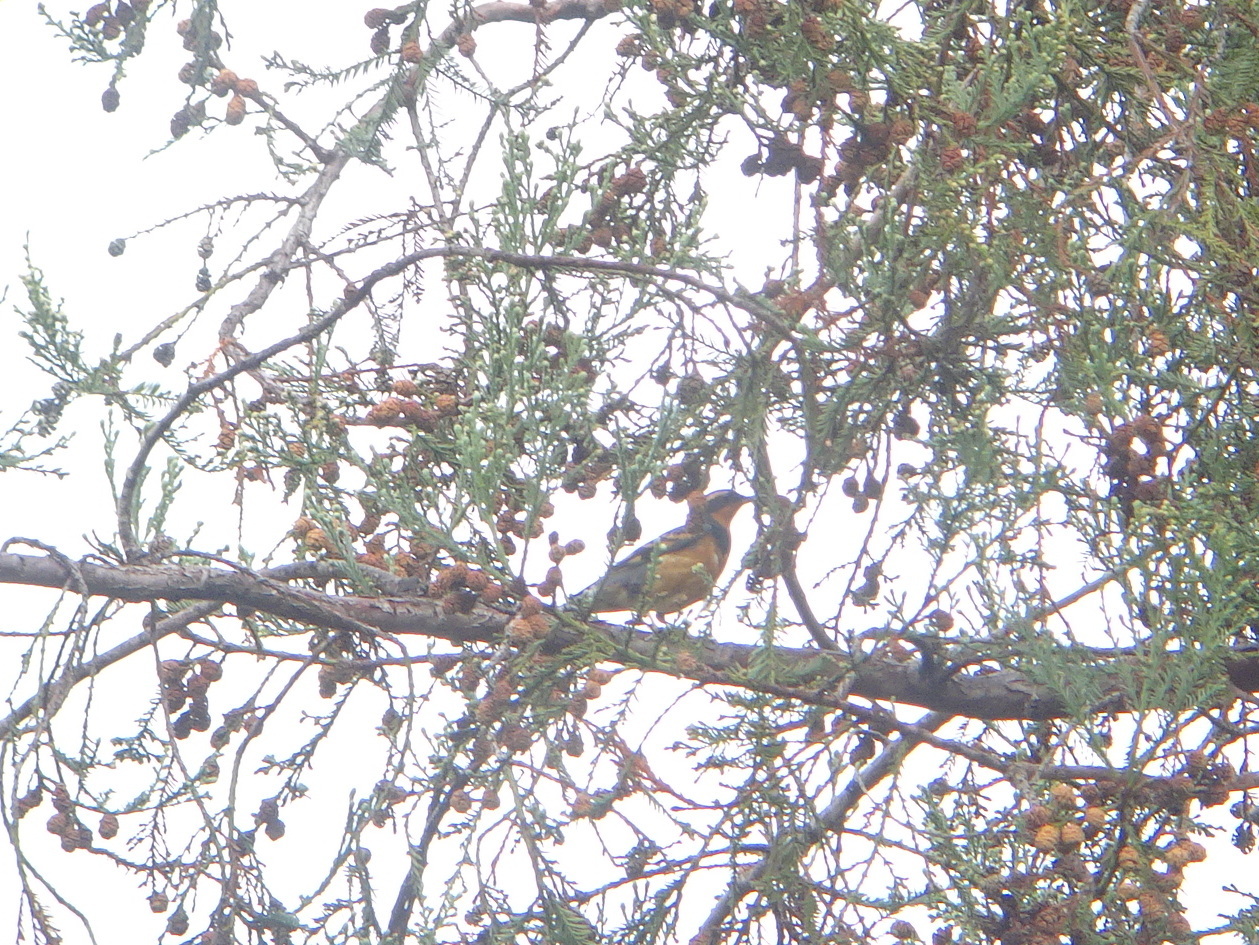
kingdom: Animalia
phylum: Chordata
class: Aves
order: Passeriformes
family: Turdidae
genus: Ixoreus
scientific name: Ixoreus naevius
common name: Varied thrush
